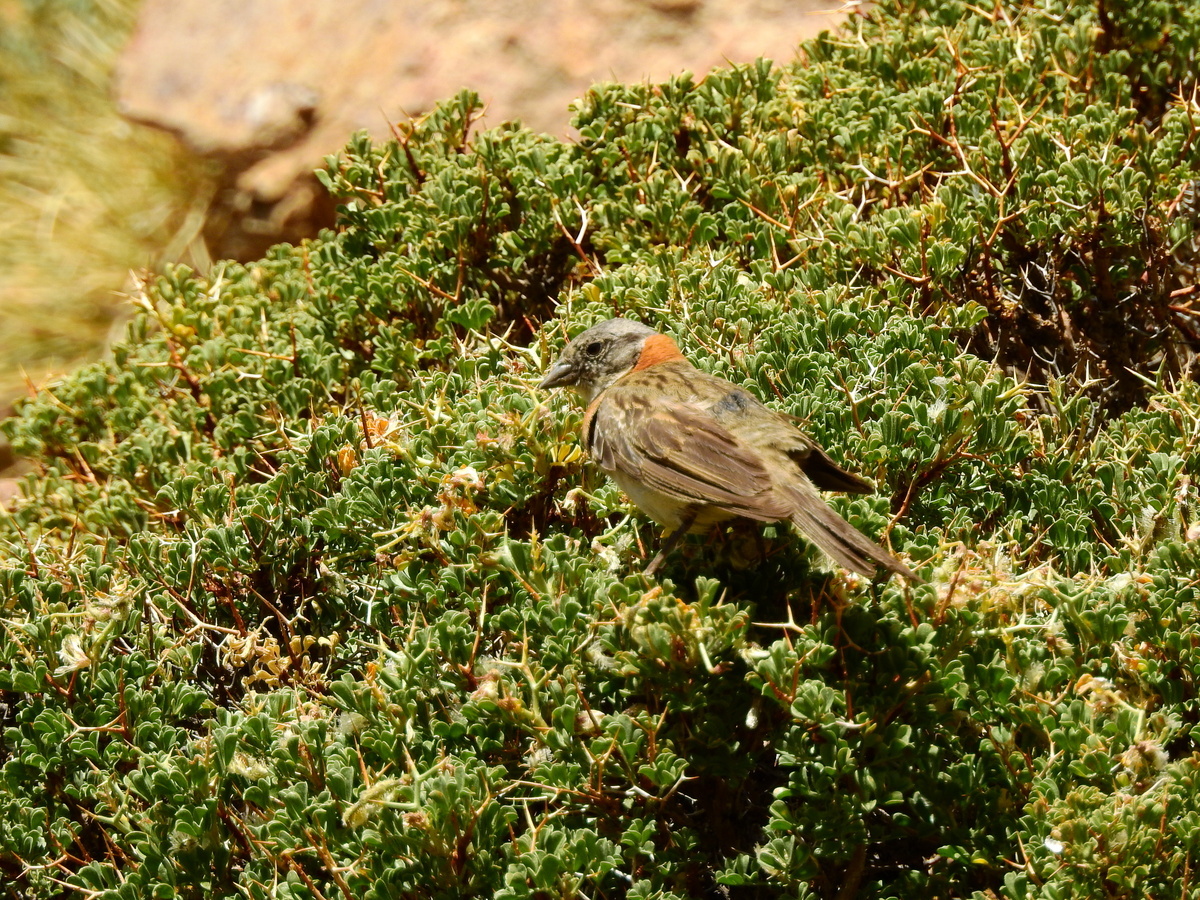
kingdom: Animalia
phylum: Chordata
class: Aves
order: Passeriformes
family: Passerellidae
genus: Zonotrichia
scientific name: Zonotrichia capensis
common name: Rufous-collared sparrow
